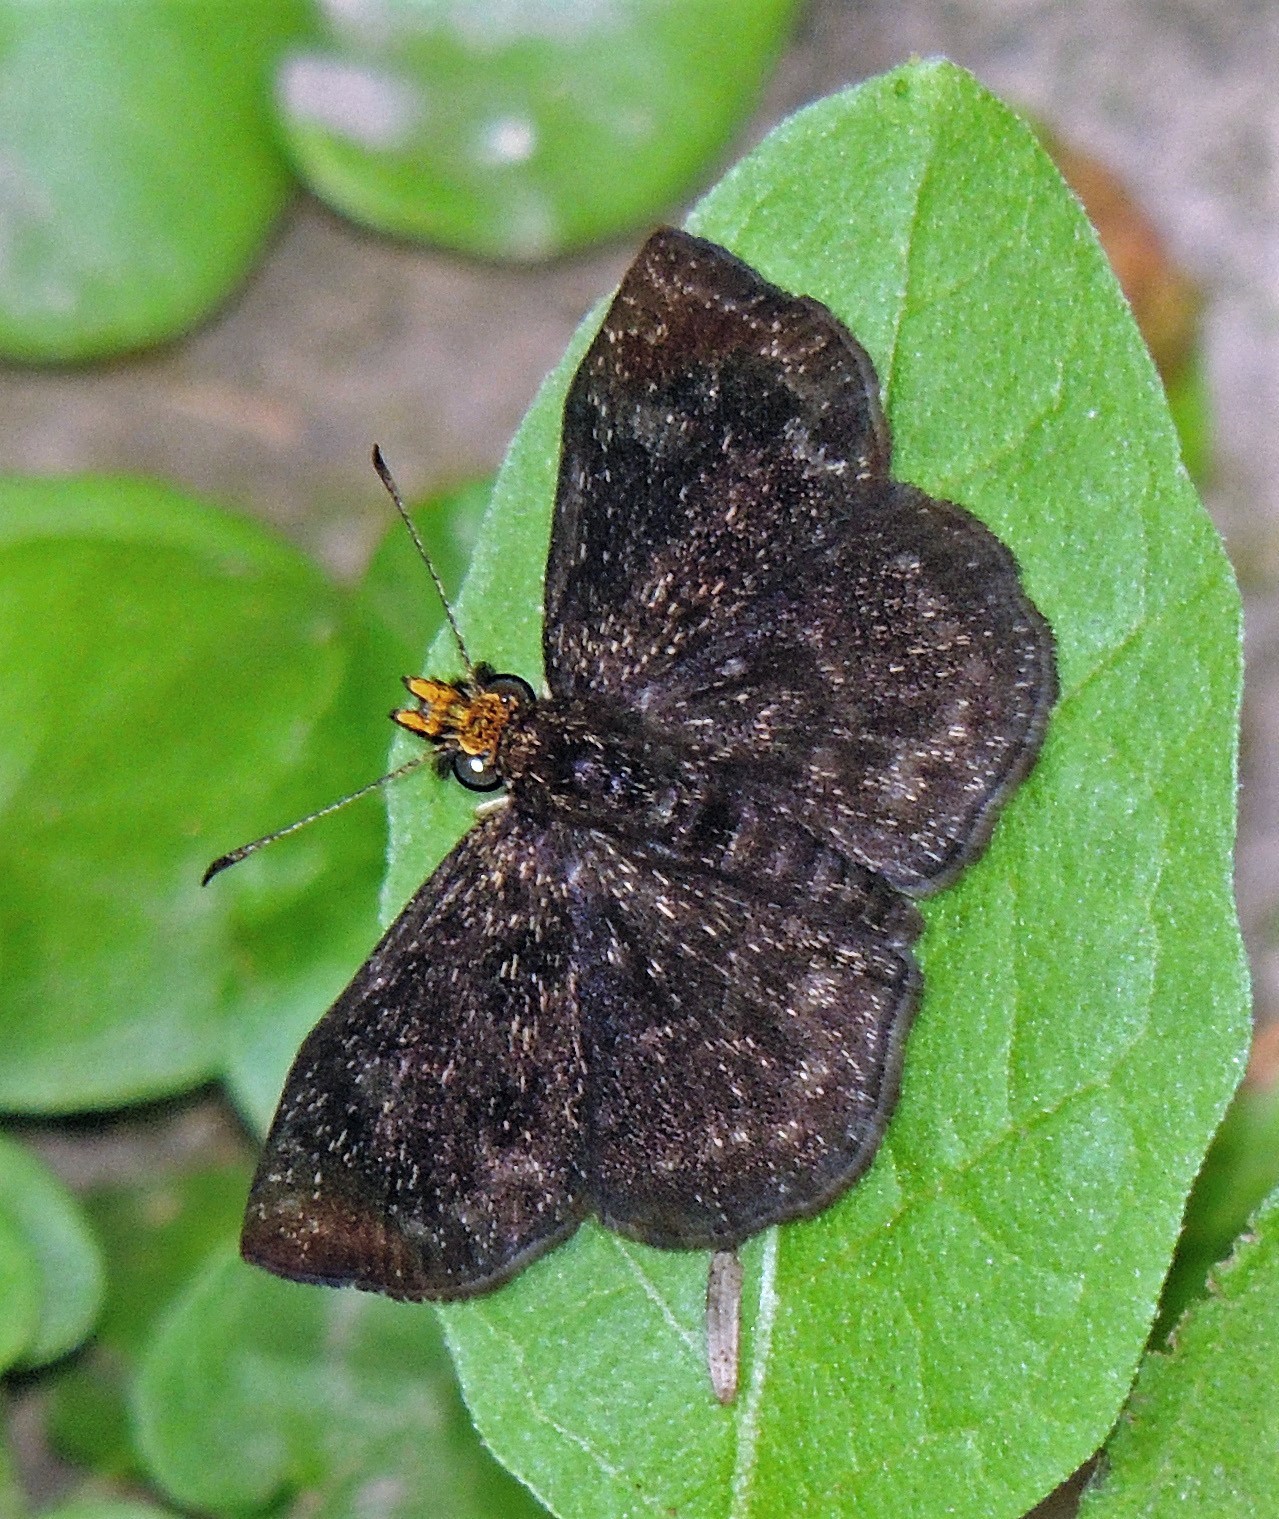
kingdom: Animalia
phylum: Arthropoda
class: Insecta
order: Lepidoptera
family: Hesperiidae
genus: Staphylus
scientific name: Staphylus musculus
